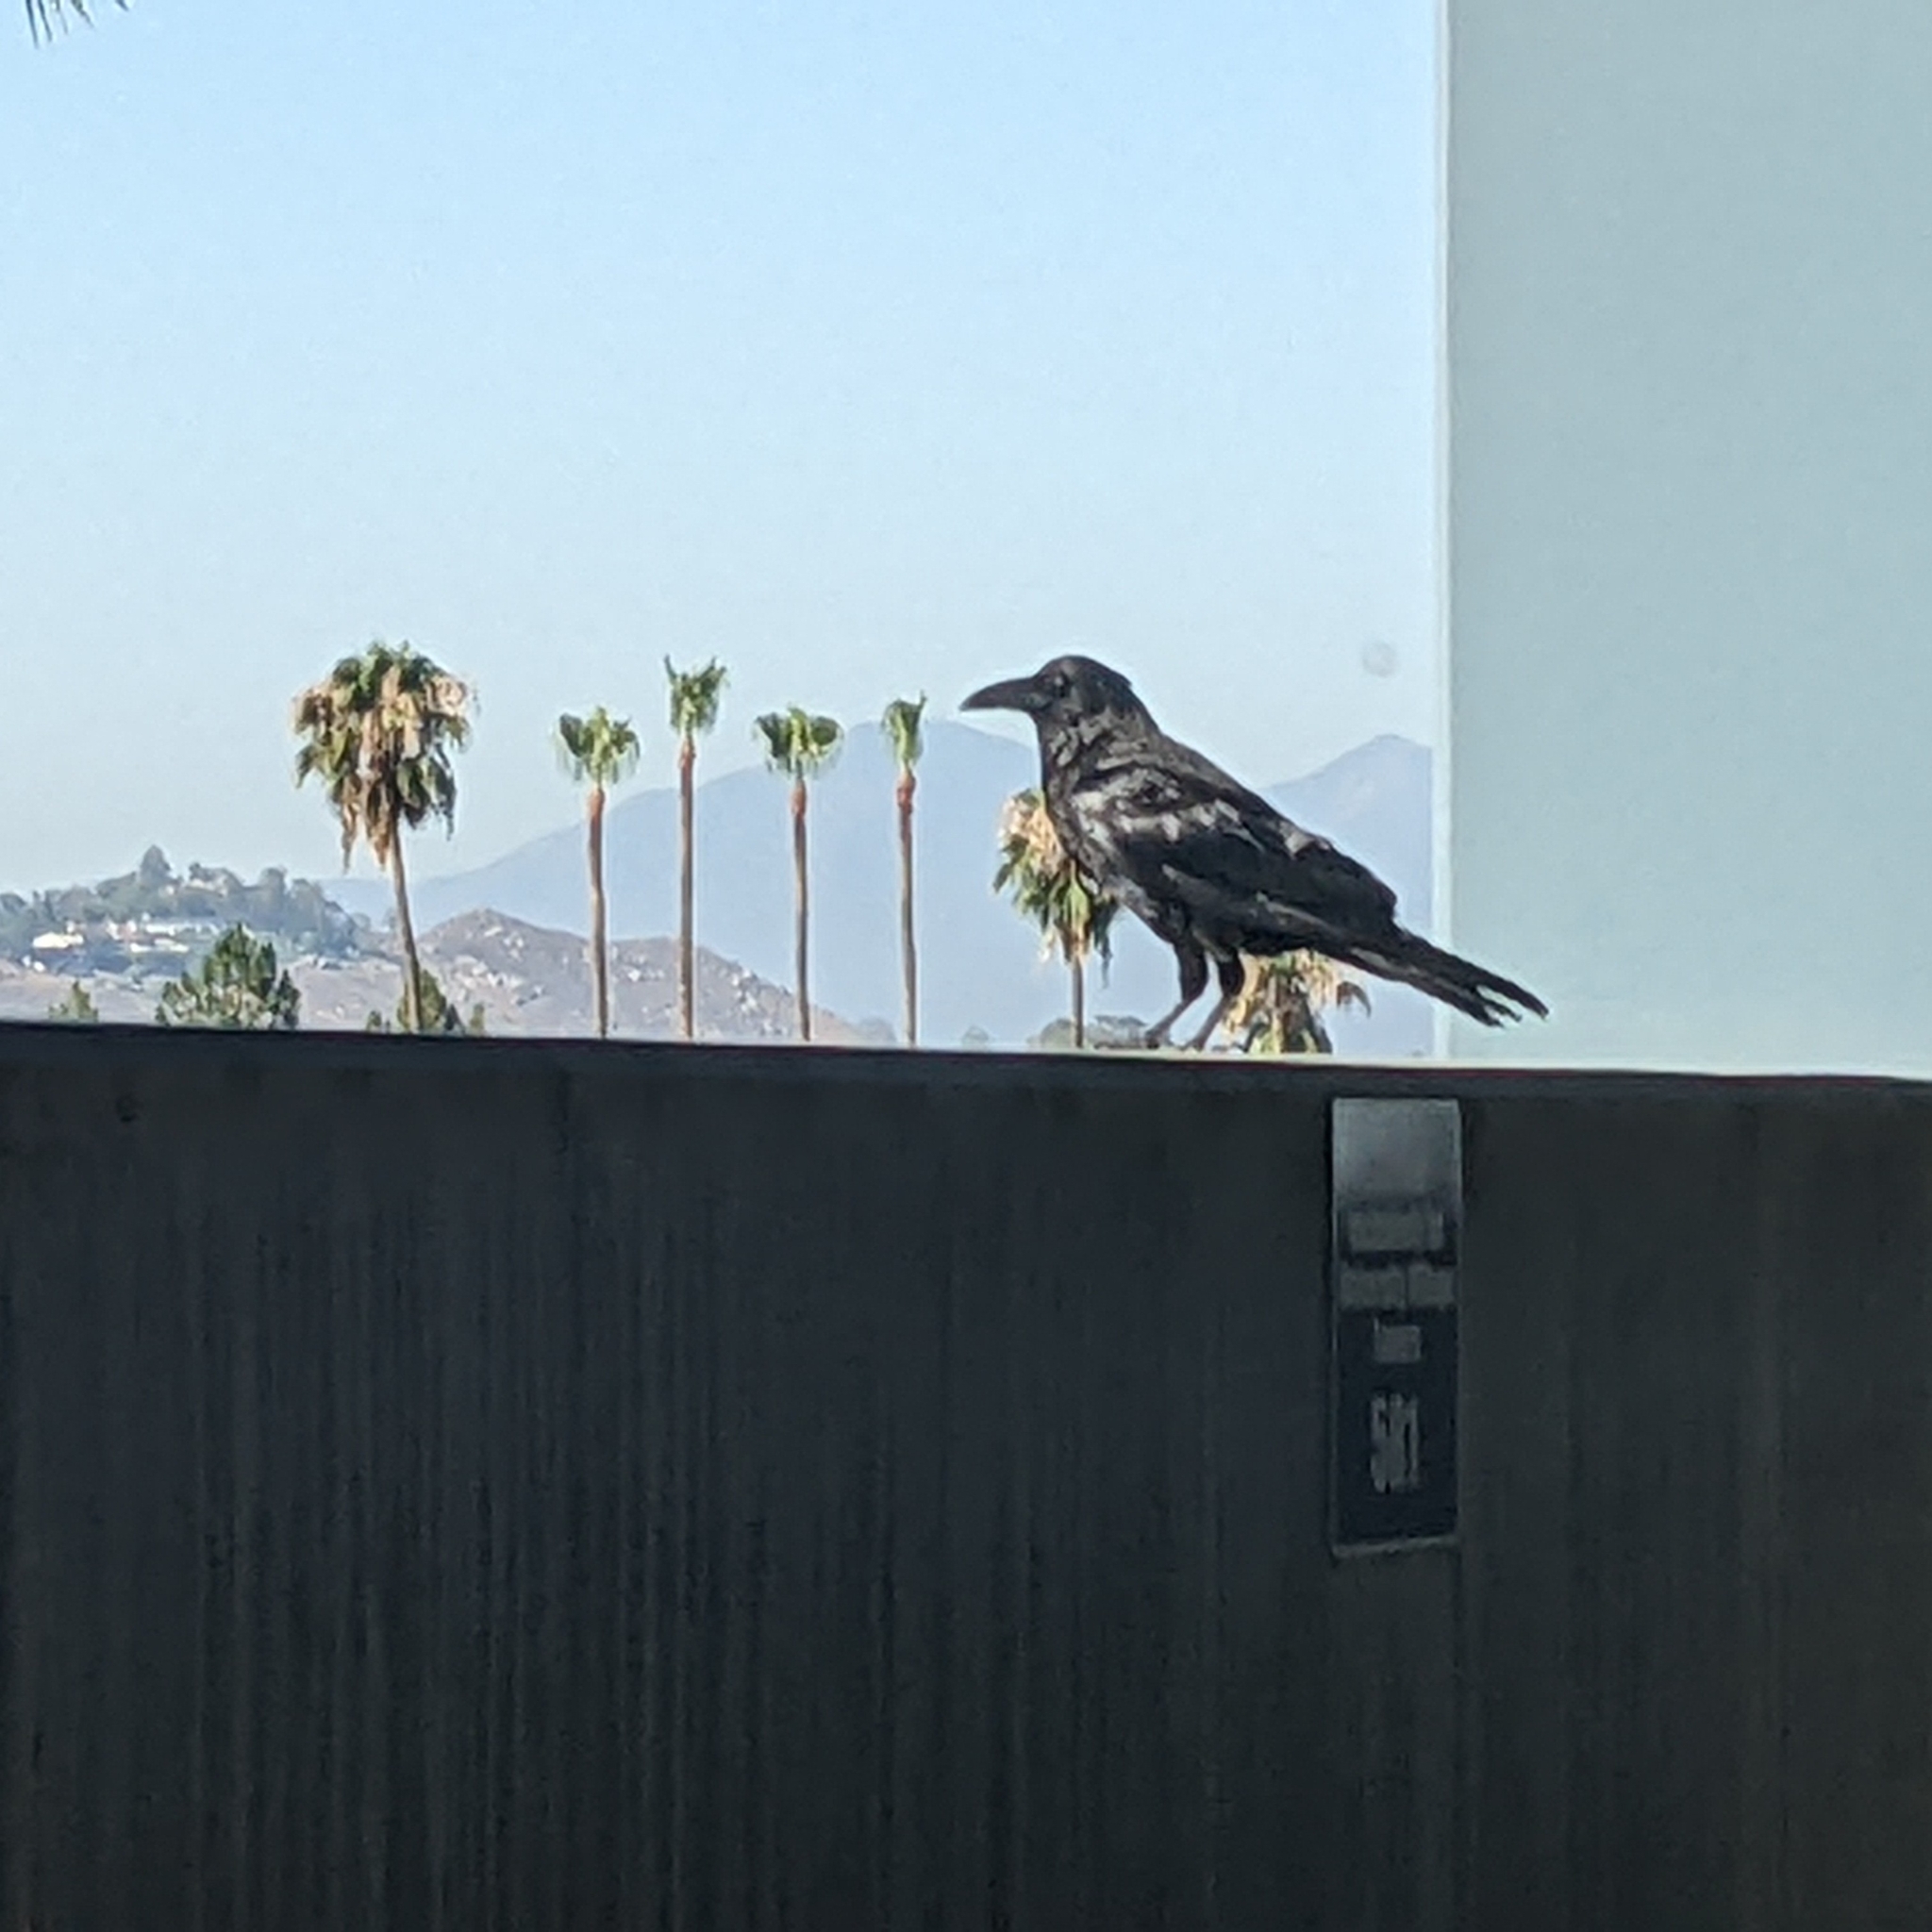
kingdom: Animalia
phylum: Chordata
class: Aves
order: Passeriformes
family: Corvidae
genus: Corvus
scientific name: Corvus corax
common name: Common raven
